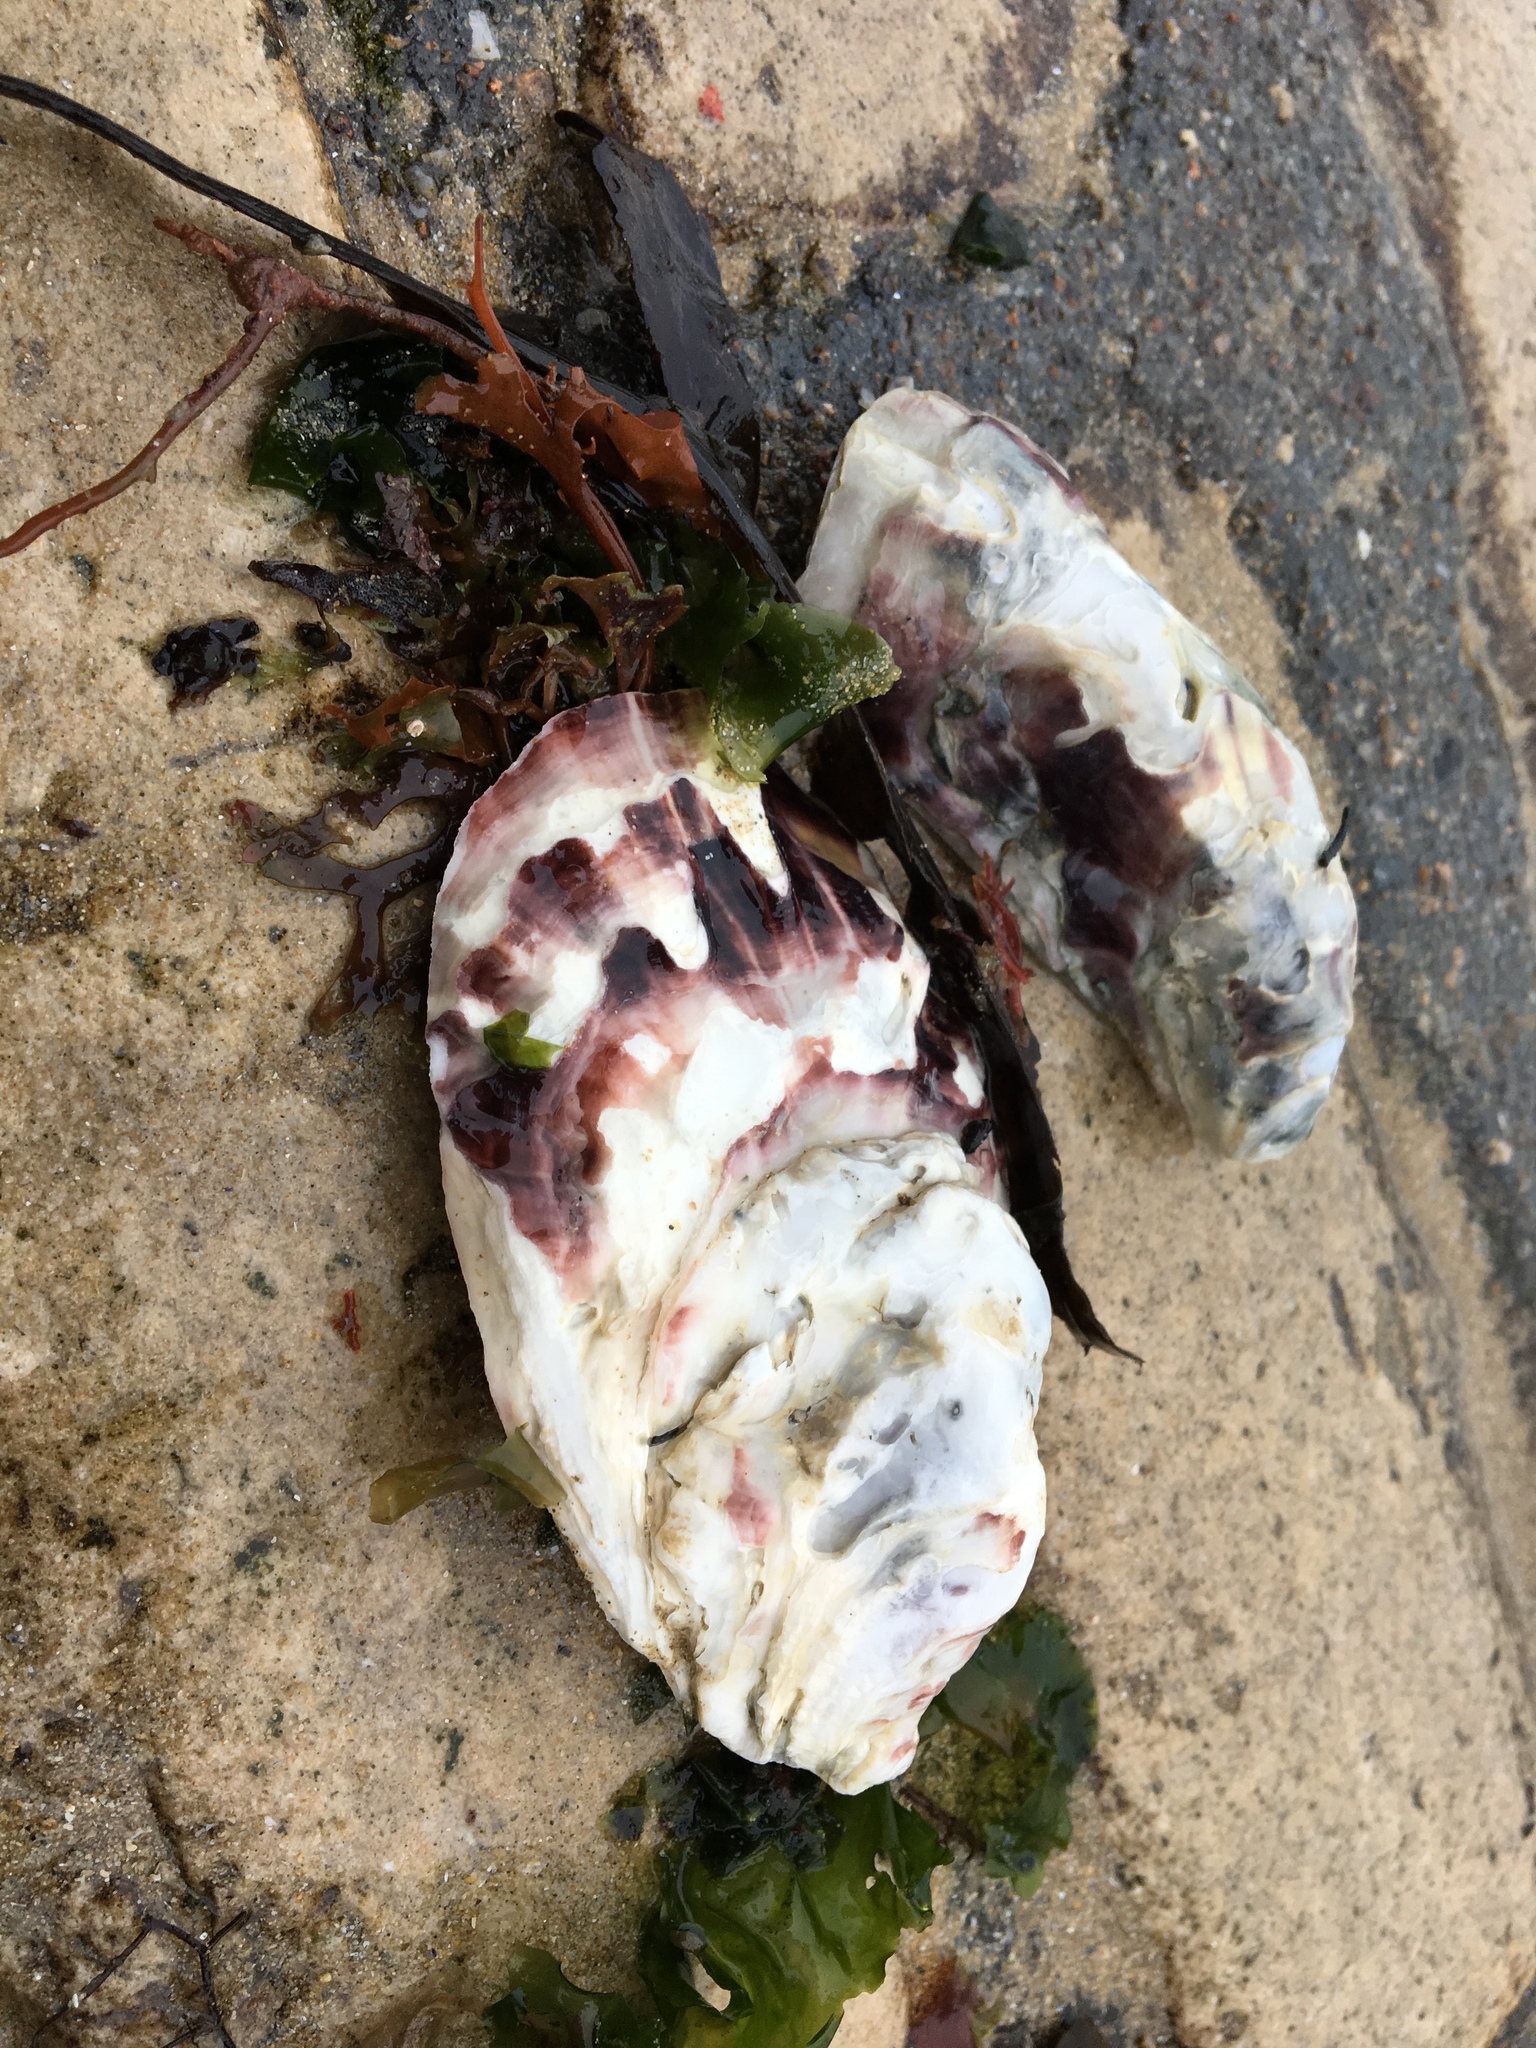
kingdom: Animalia
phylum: Mollusca
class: Bivalvia
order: Ostreida
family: Ostreidae
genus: Magallana
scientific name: Magallana gigas
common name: Pacific oyster
